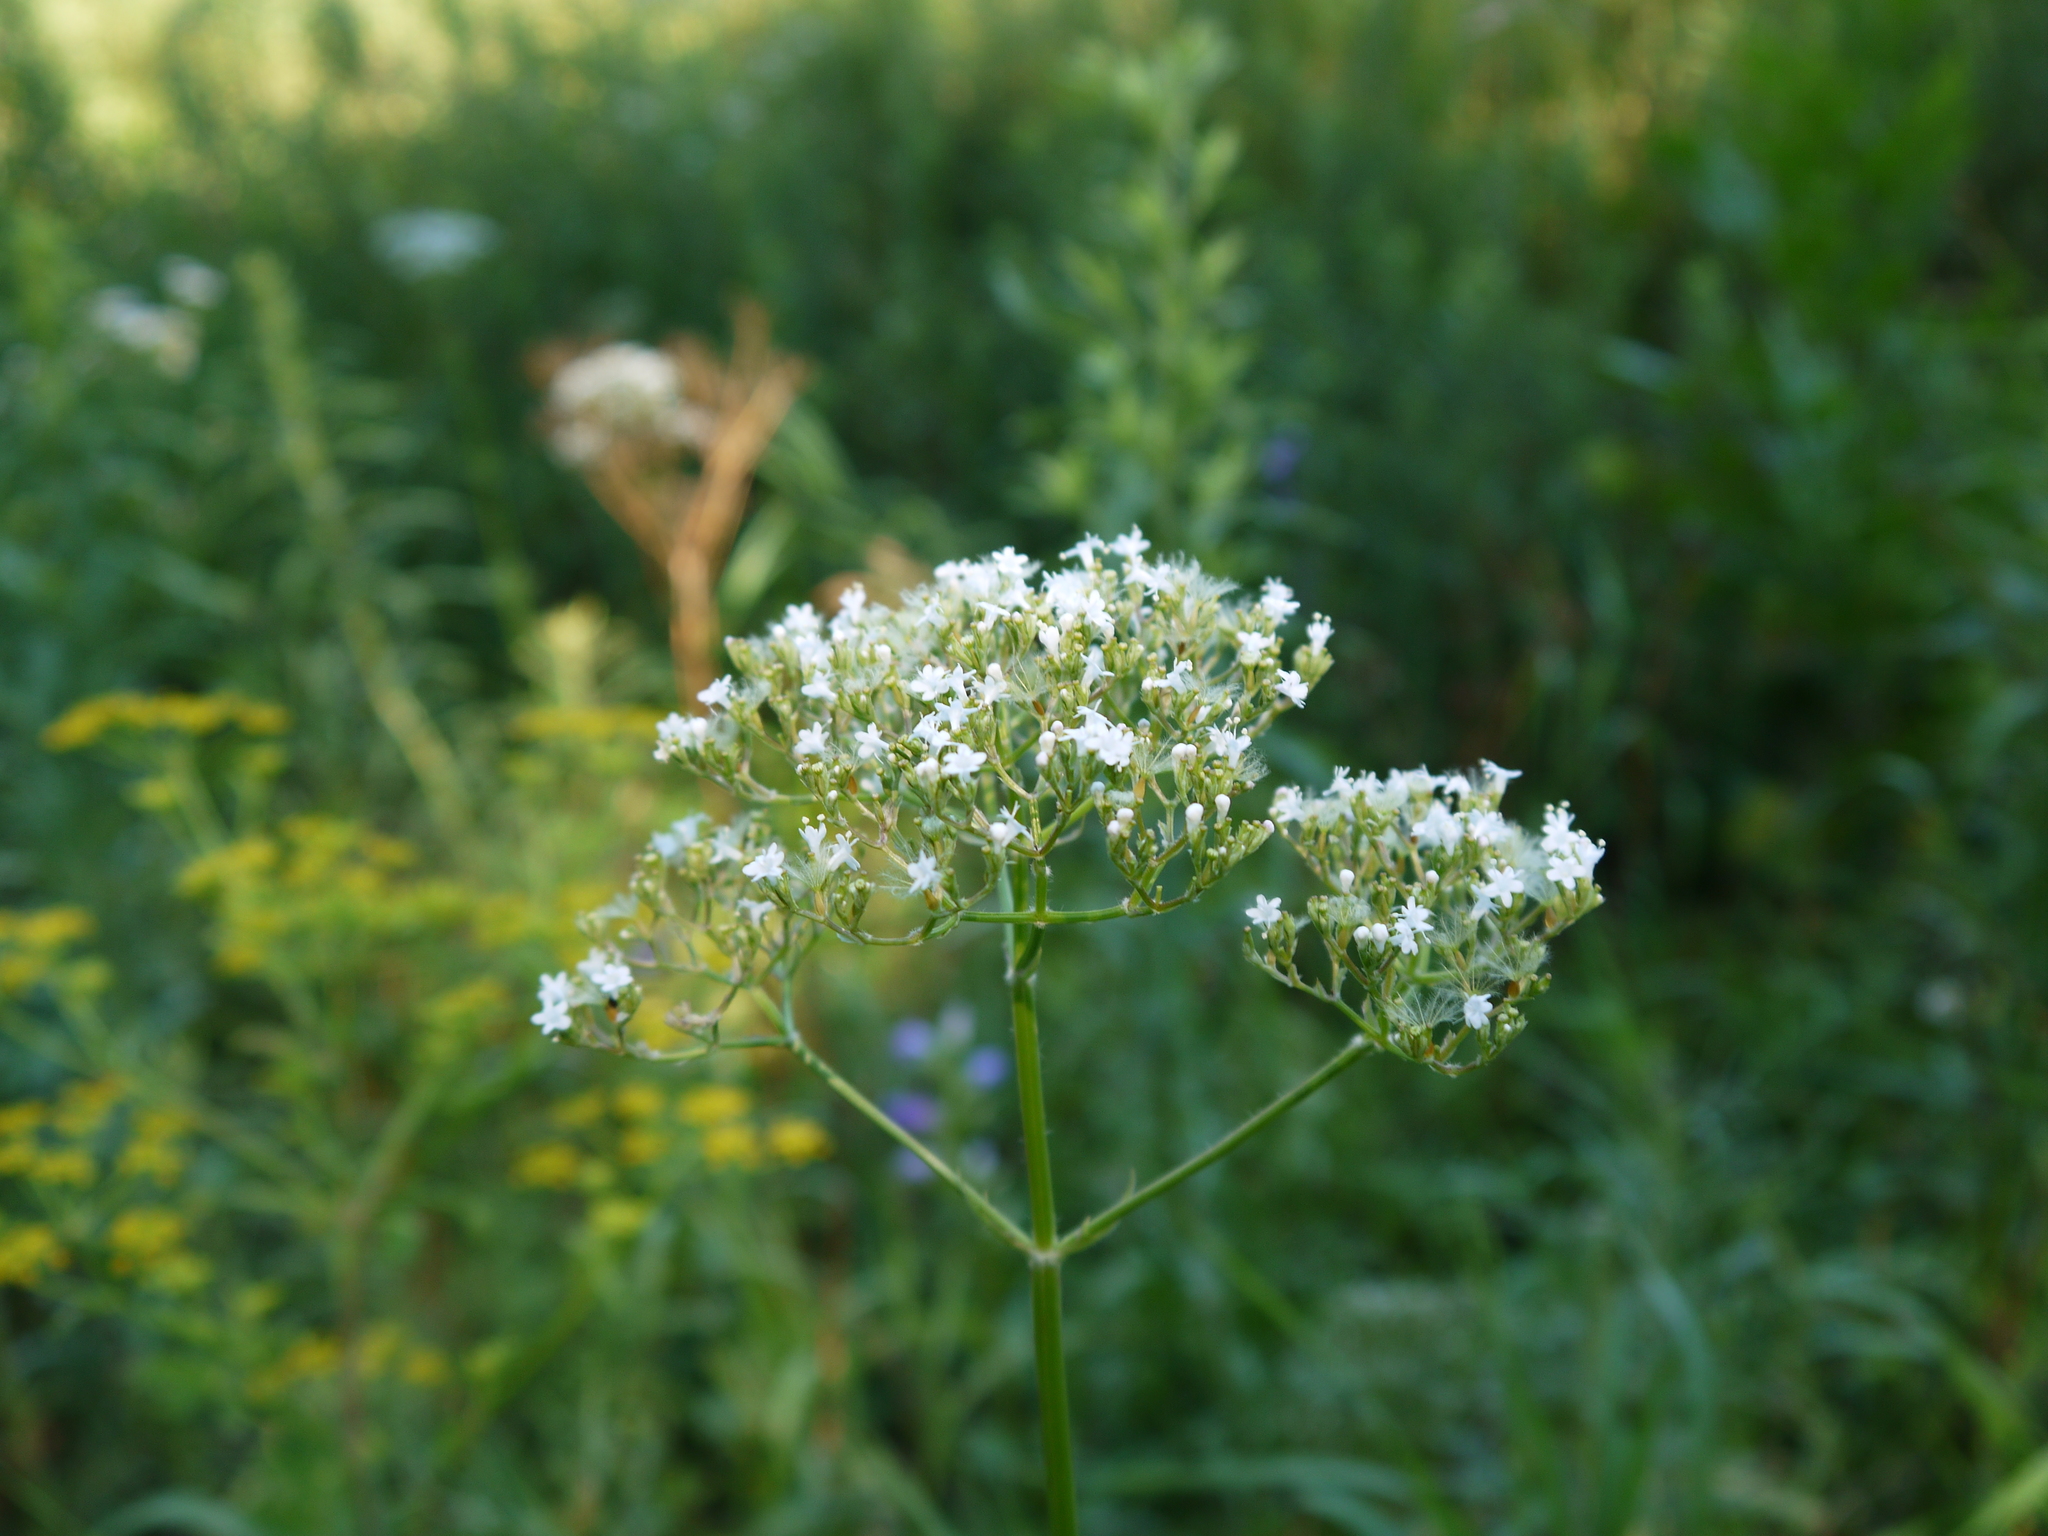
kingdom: Plantae
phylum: Tracheophyta
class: Magnoliopsida
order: Dipsacales
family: Caprifoliaceae
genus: Valeriana
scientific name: Valeriana officinalis
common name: Common valerian
